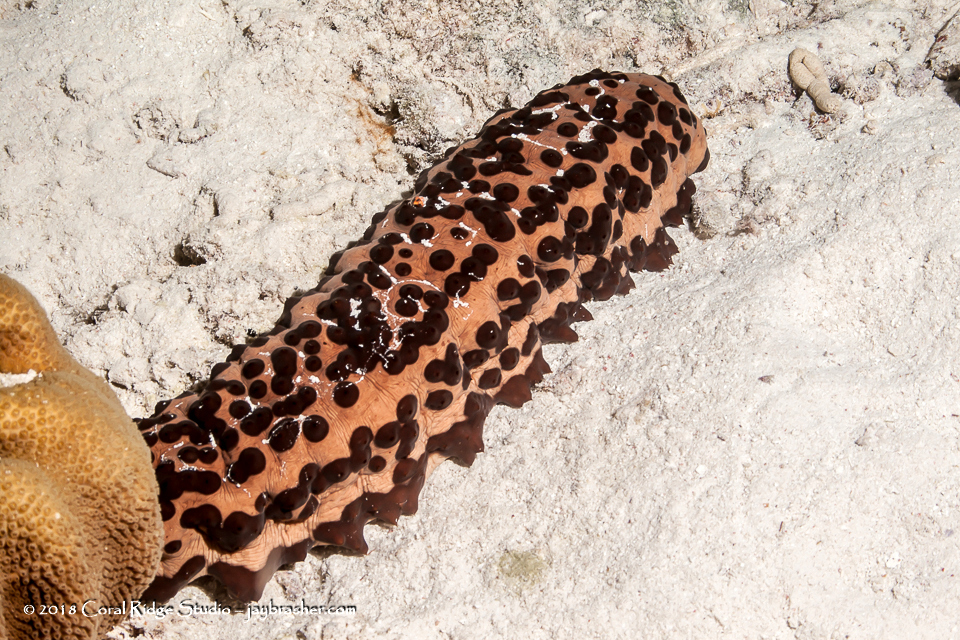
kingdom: Animalia
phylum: Echinodermata
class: Holothuroidea
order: Synallactida
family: Stichopodidae
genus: Isostichopus
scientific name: Isostichopus badionotus
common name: Chocolate chip cucumber
